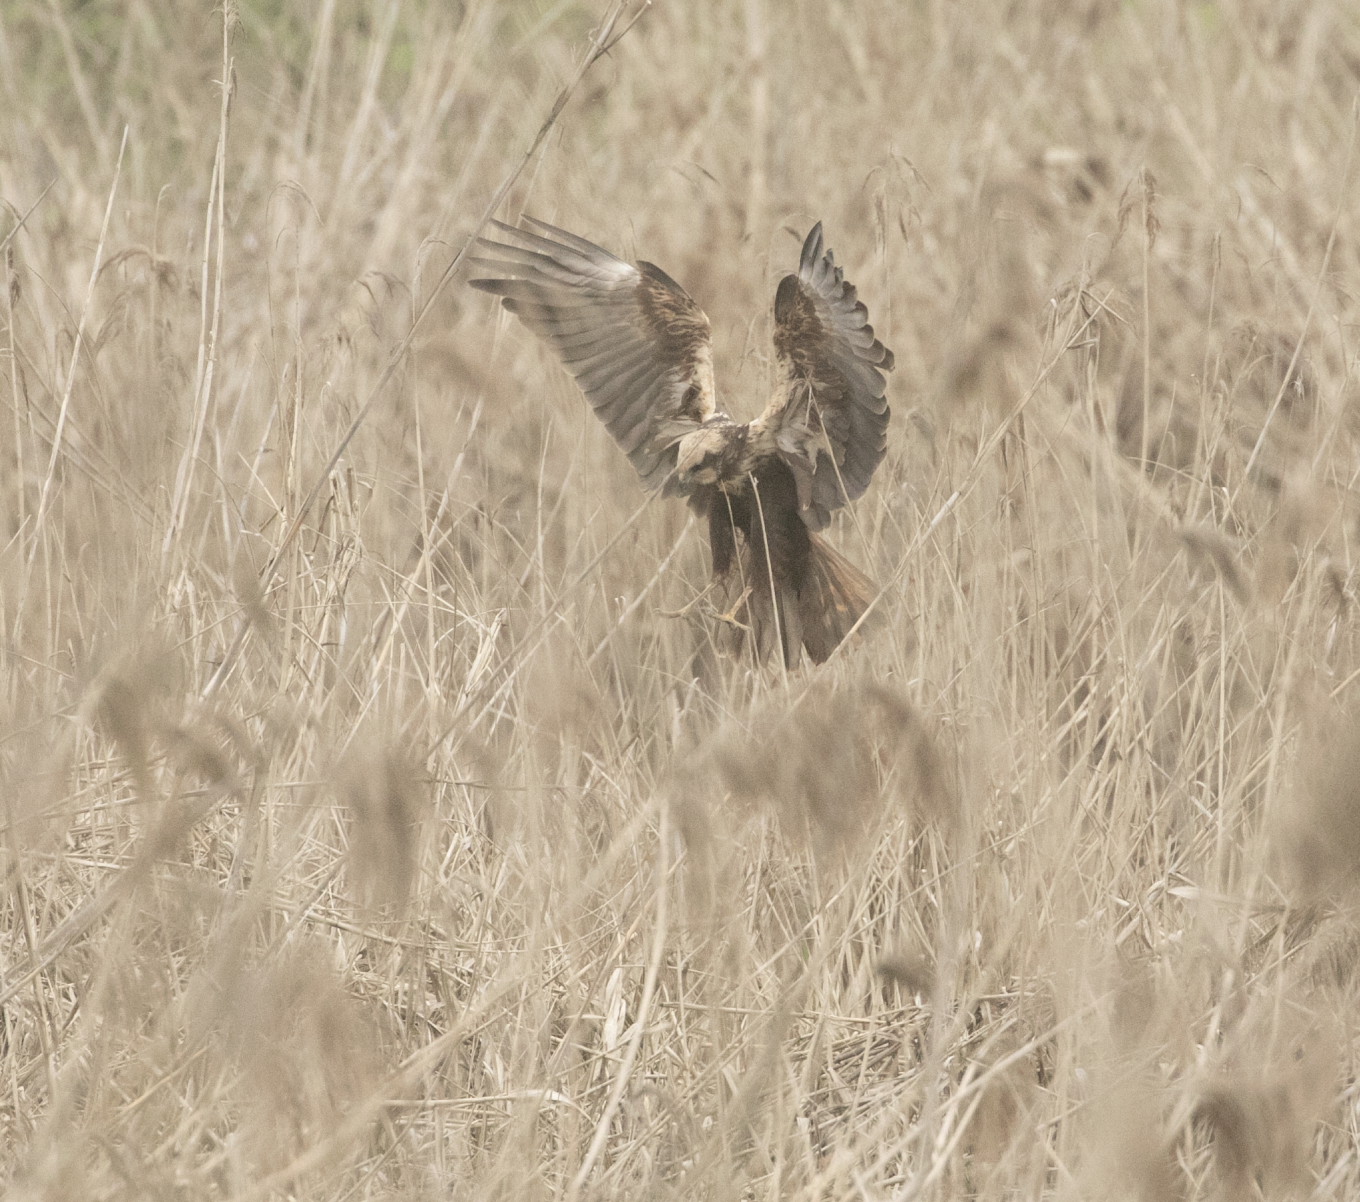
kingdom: Animalia
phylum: Chordata
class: Aves
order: Accipitriformes
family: Accipitridae
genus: Circus
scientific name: Circus aeruginosus
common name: Western marsh harrier
